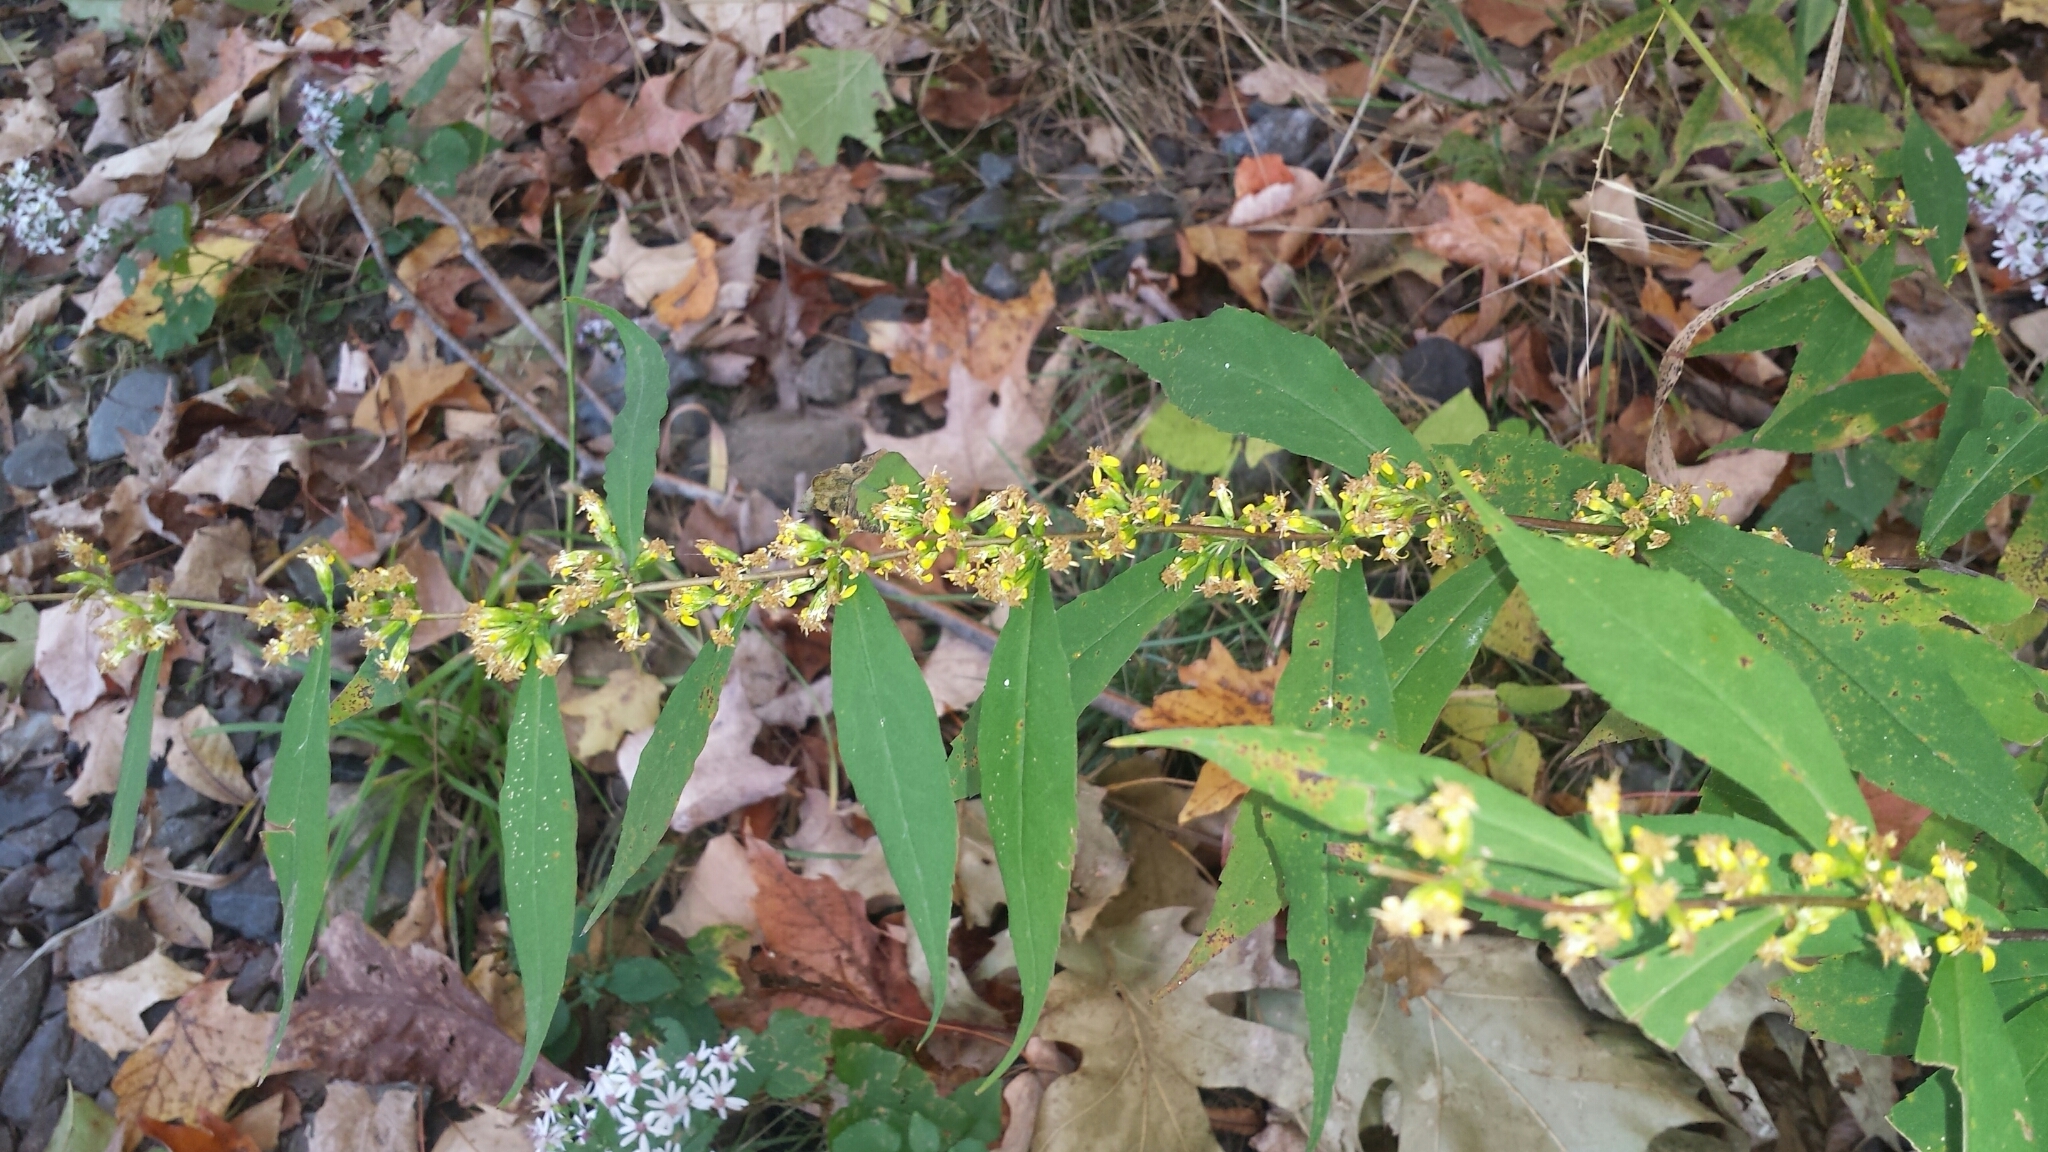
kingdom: Plantae
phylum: Tracheophyta
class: Magnoliopsida
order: Asterales
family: Asteraceae
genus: Solidago
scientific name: Solidago caesia
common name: Woodland goldenrod
